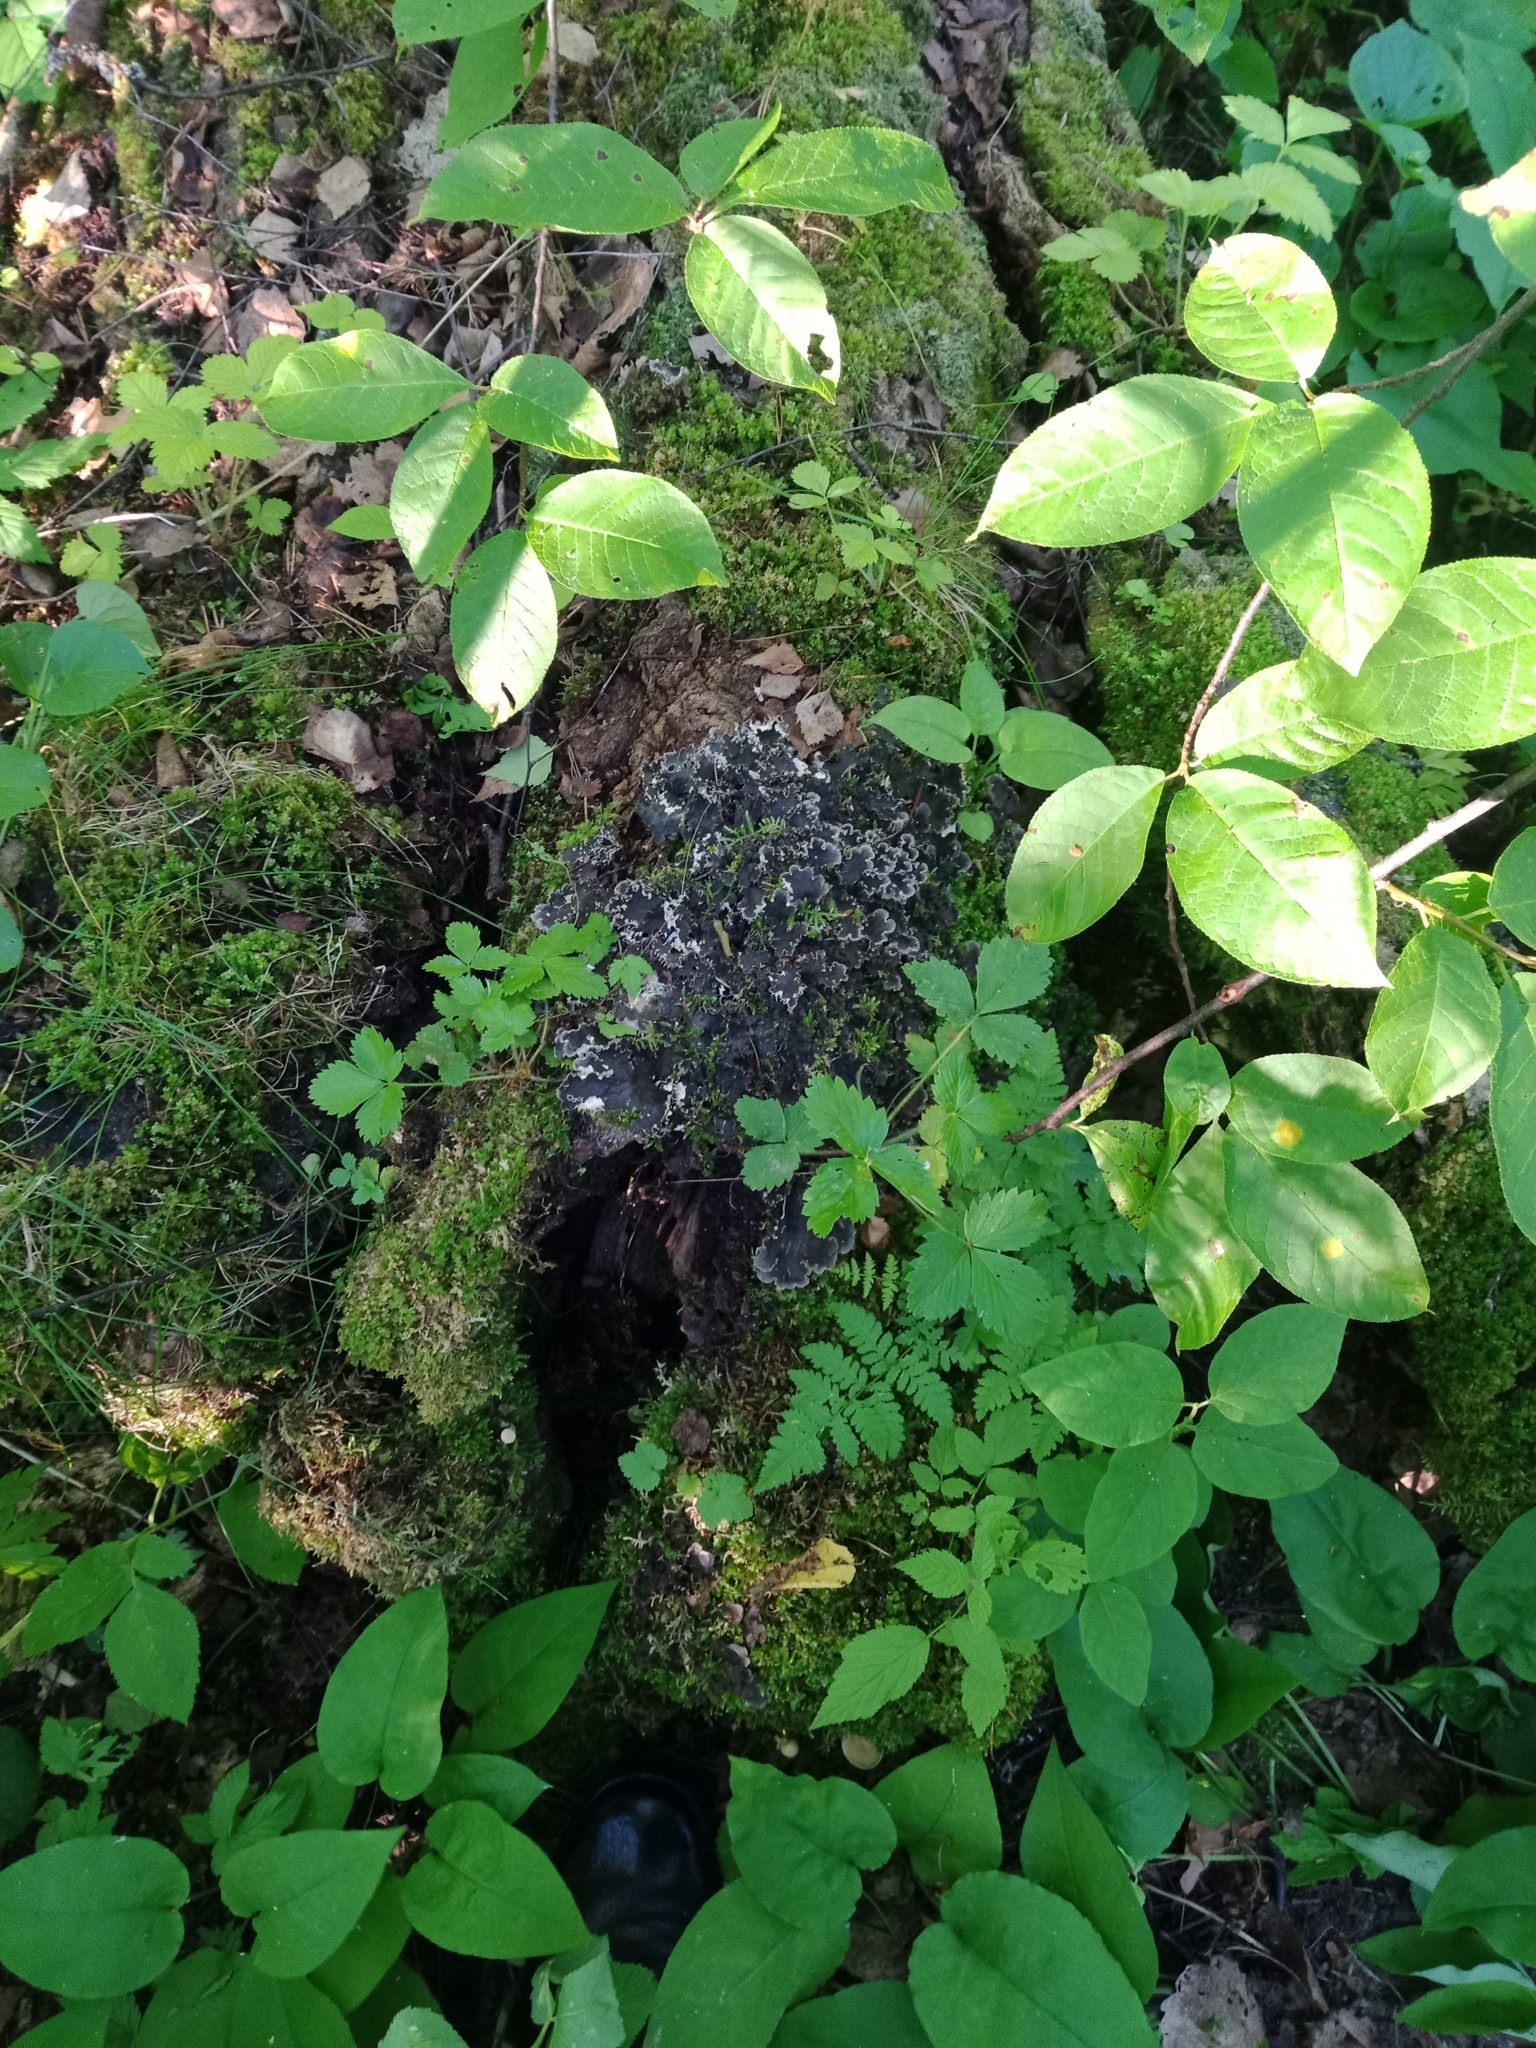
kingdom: Fungi
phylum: Ascomycota
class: Lecanoromycetes
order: Peltigerales
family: Peltigeraceae
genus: Peltigera
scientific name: Peltigera praetextata
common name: Scaly dog-lichen
